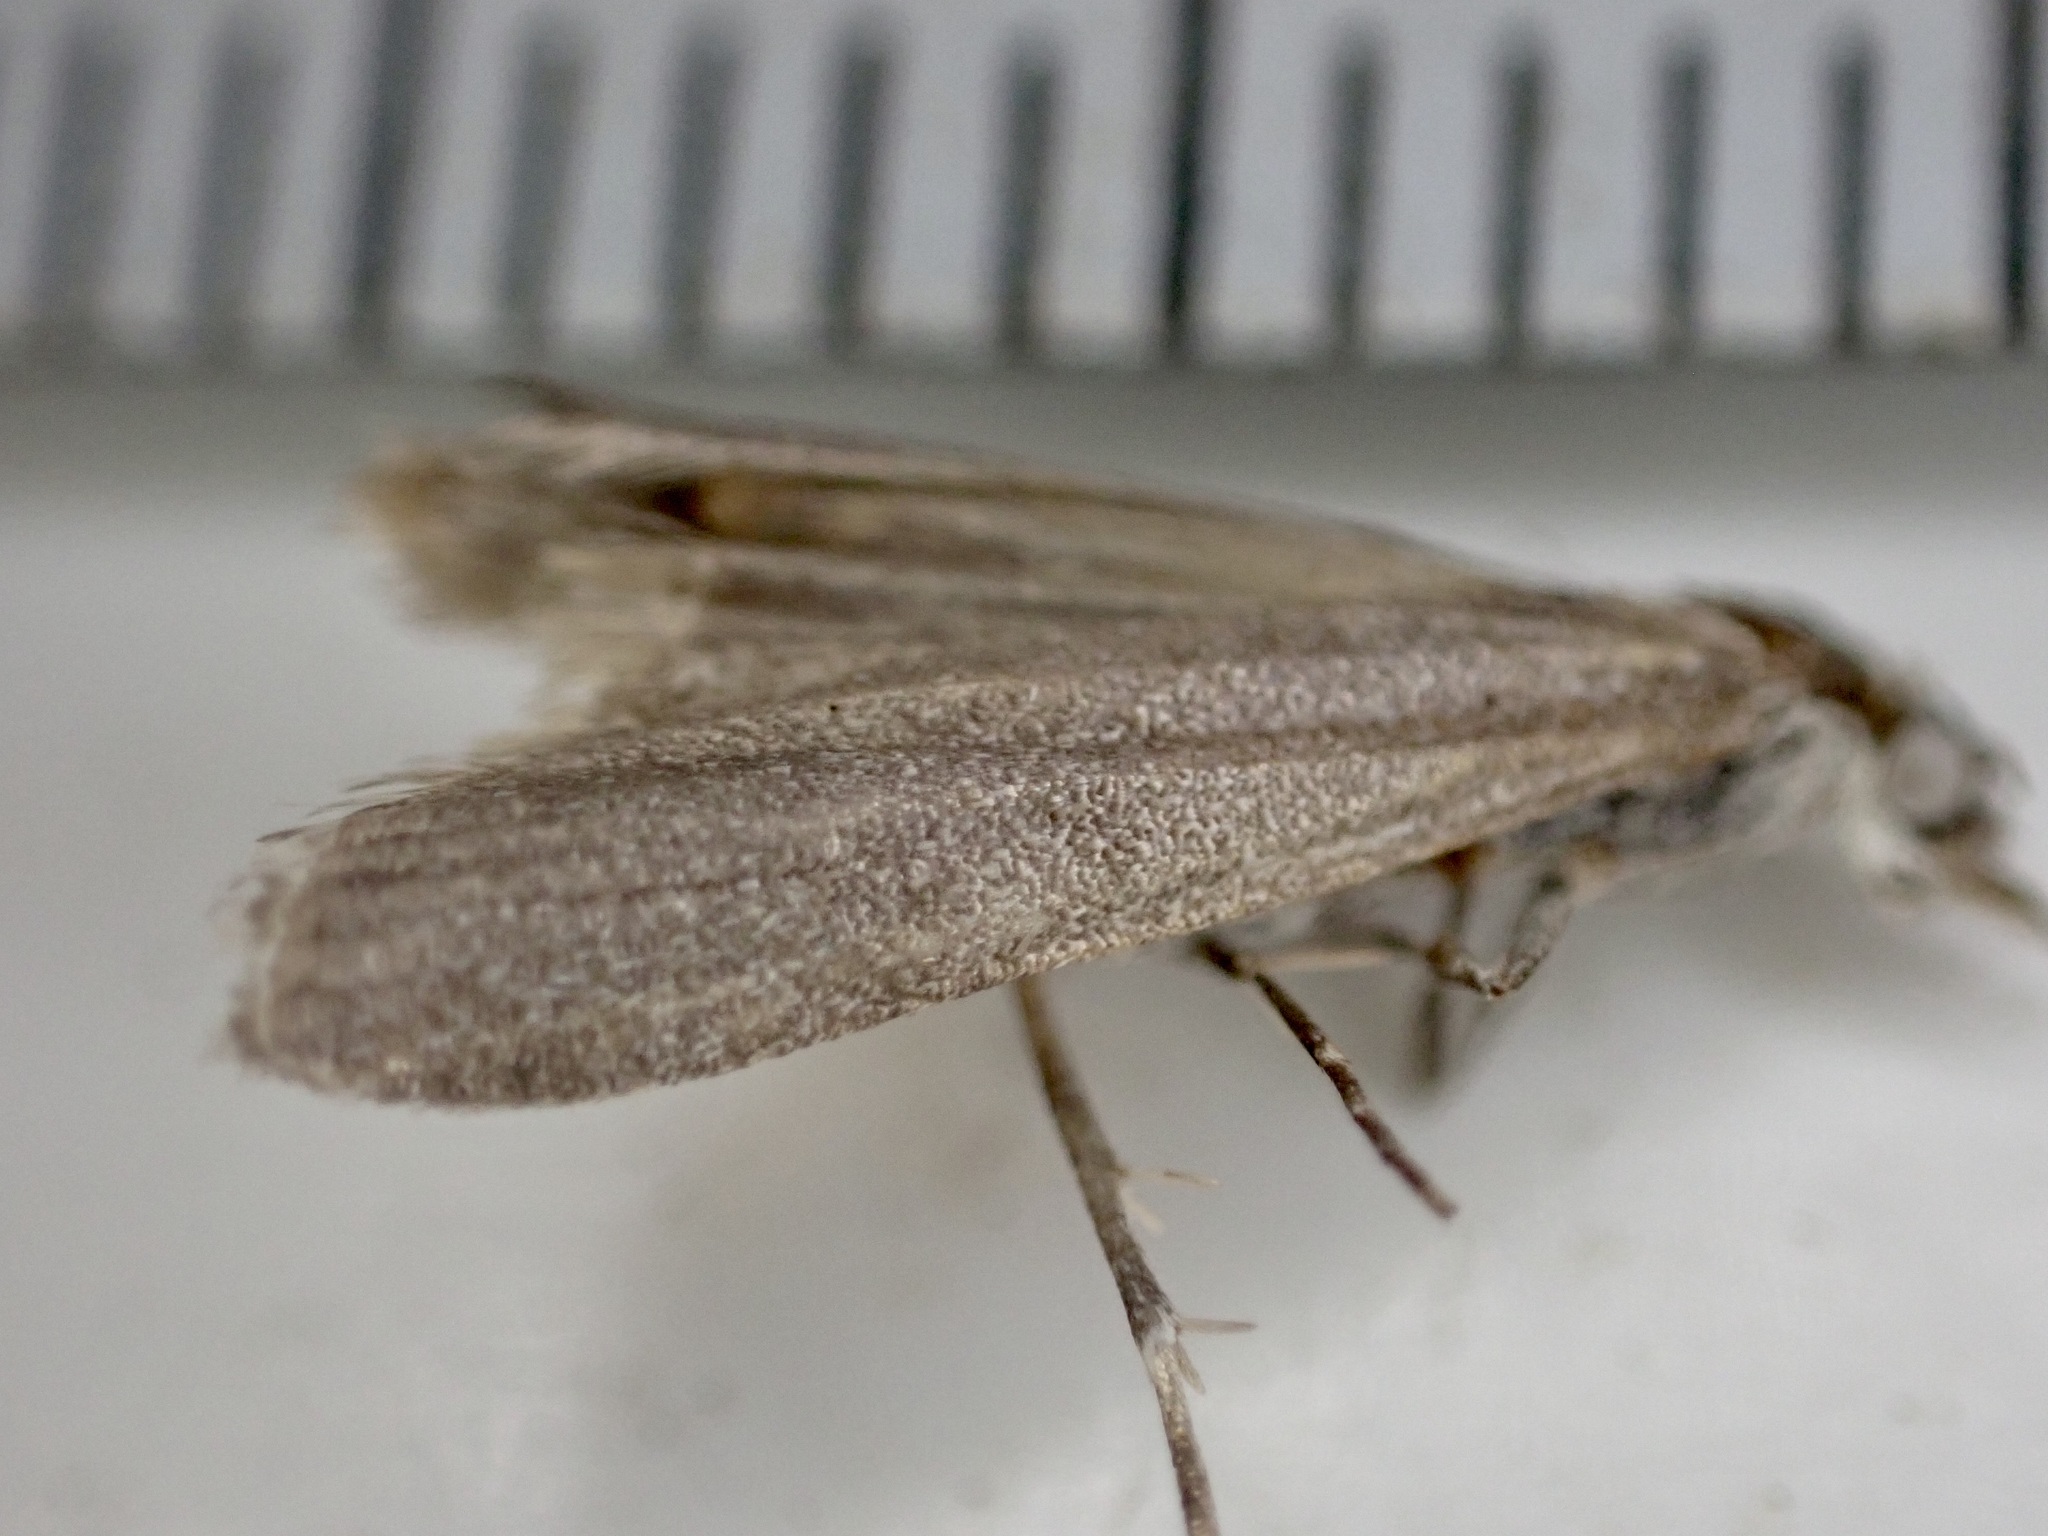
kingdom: Animalia
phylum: Arthropoda
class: Insecta
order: Lepidoptera
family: Crambidae
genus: Eudonia
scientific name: Eudonia leptalea
